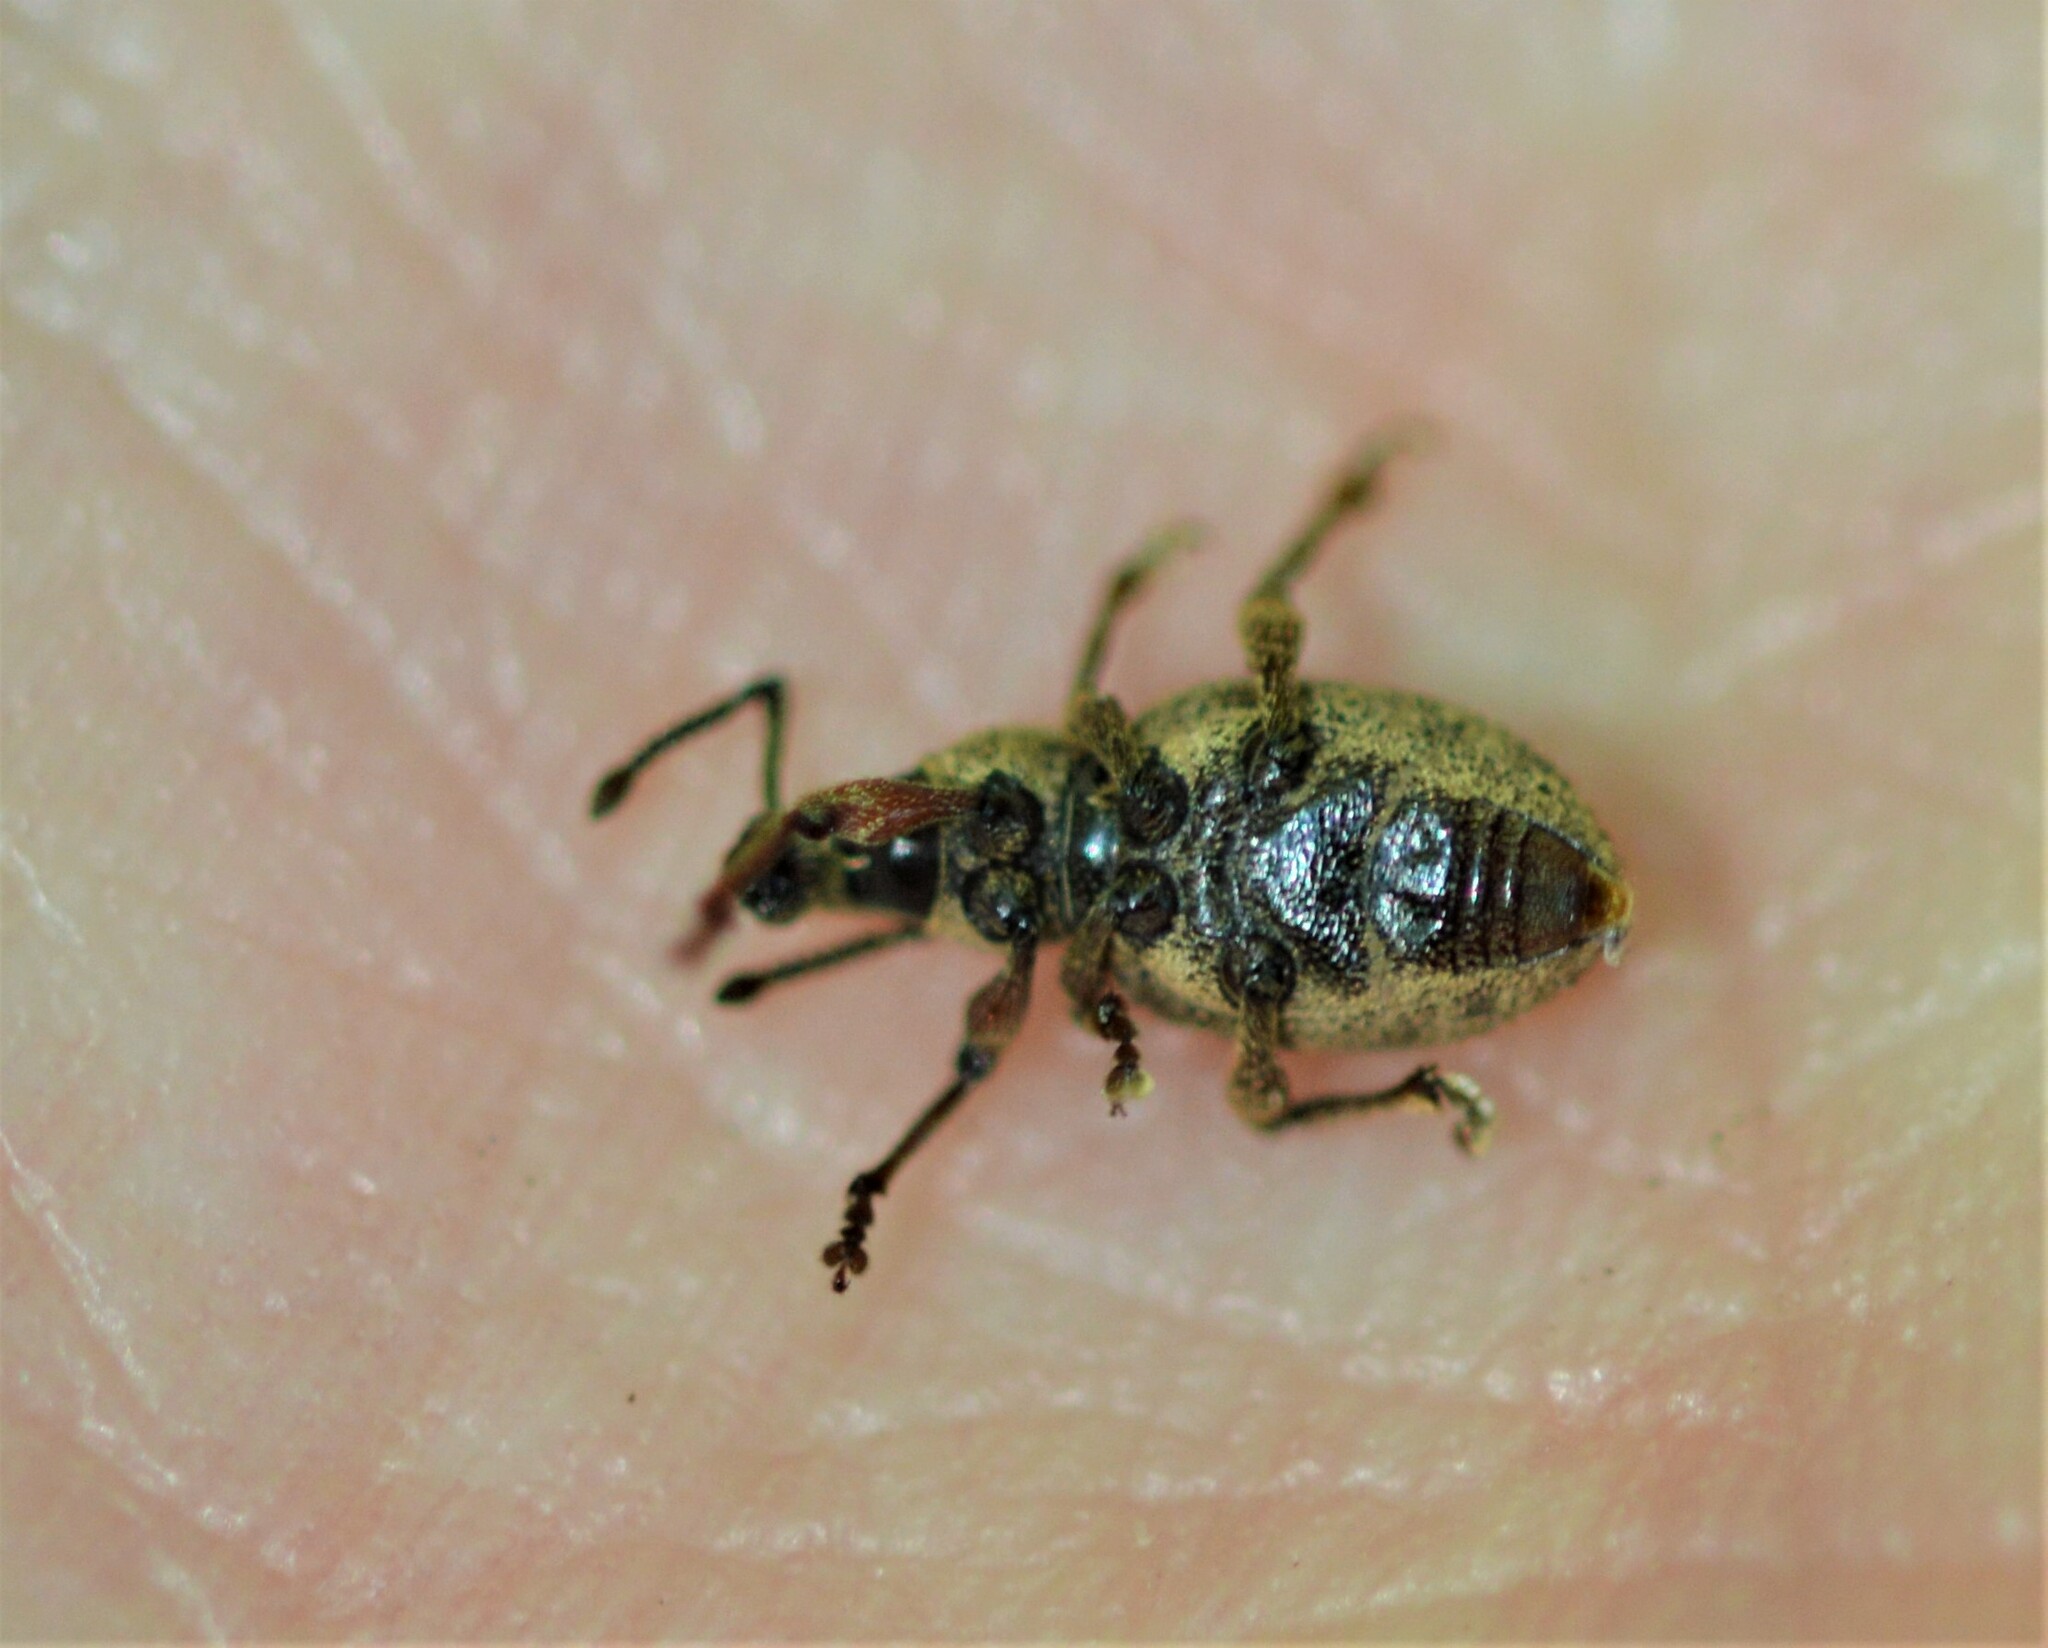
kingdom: Animalia
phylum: Arthropoda
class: Insecta
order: Coleoptera
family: Curculionidae
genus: Otiorhynchus
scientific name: Otiorhynchus singularis
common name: Clay-coloured weevil
